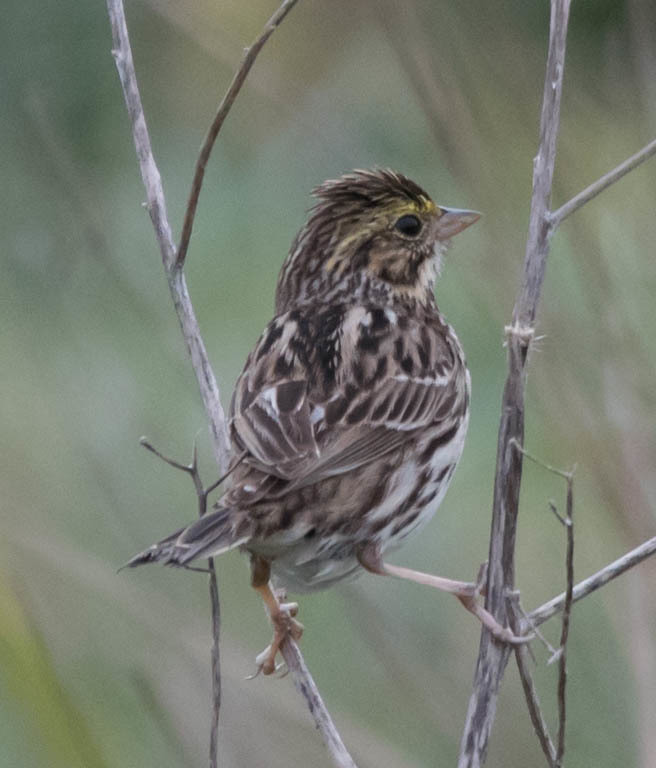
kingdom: Animalia
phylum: Chordata
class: Aves
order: Passeriformes
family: Passerellidae
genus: Passerculus
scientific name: Passerculus sandwichensis
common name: Savannah sparrow
